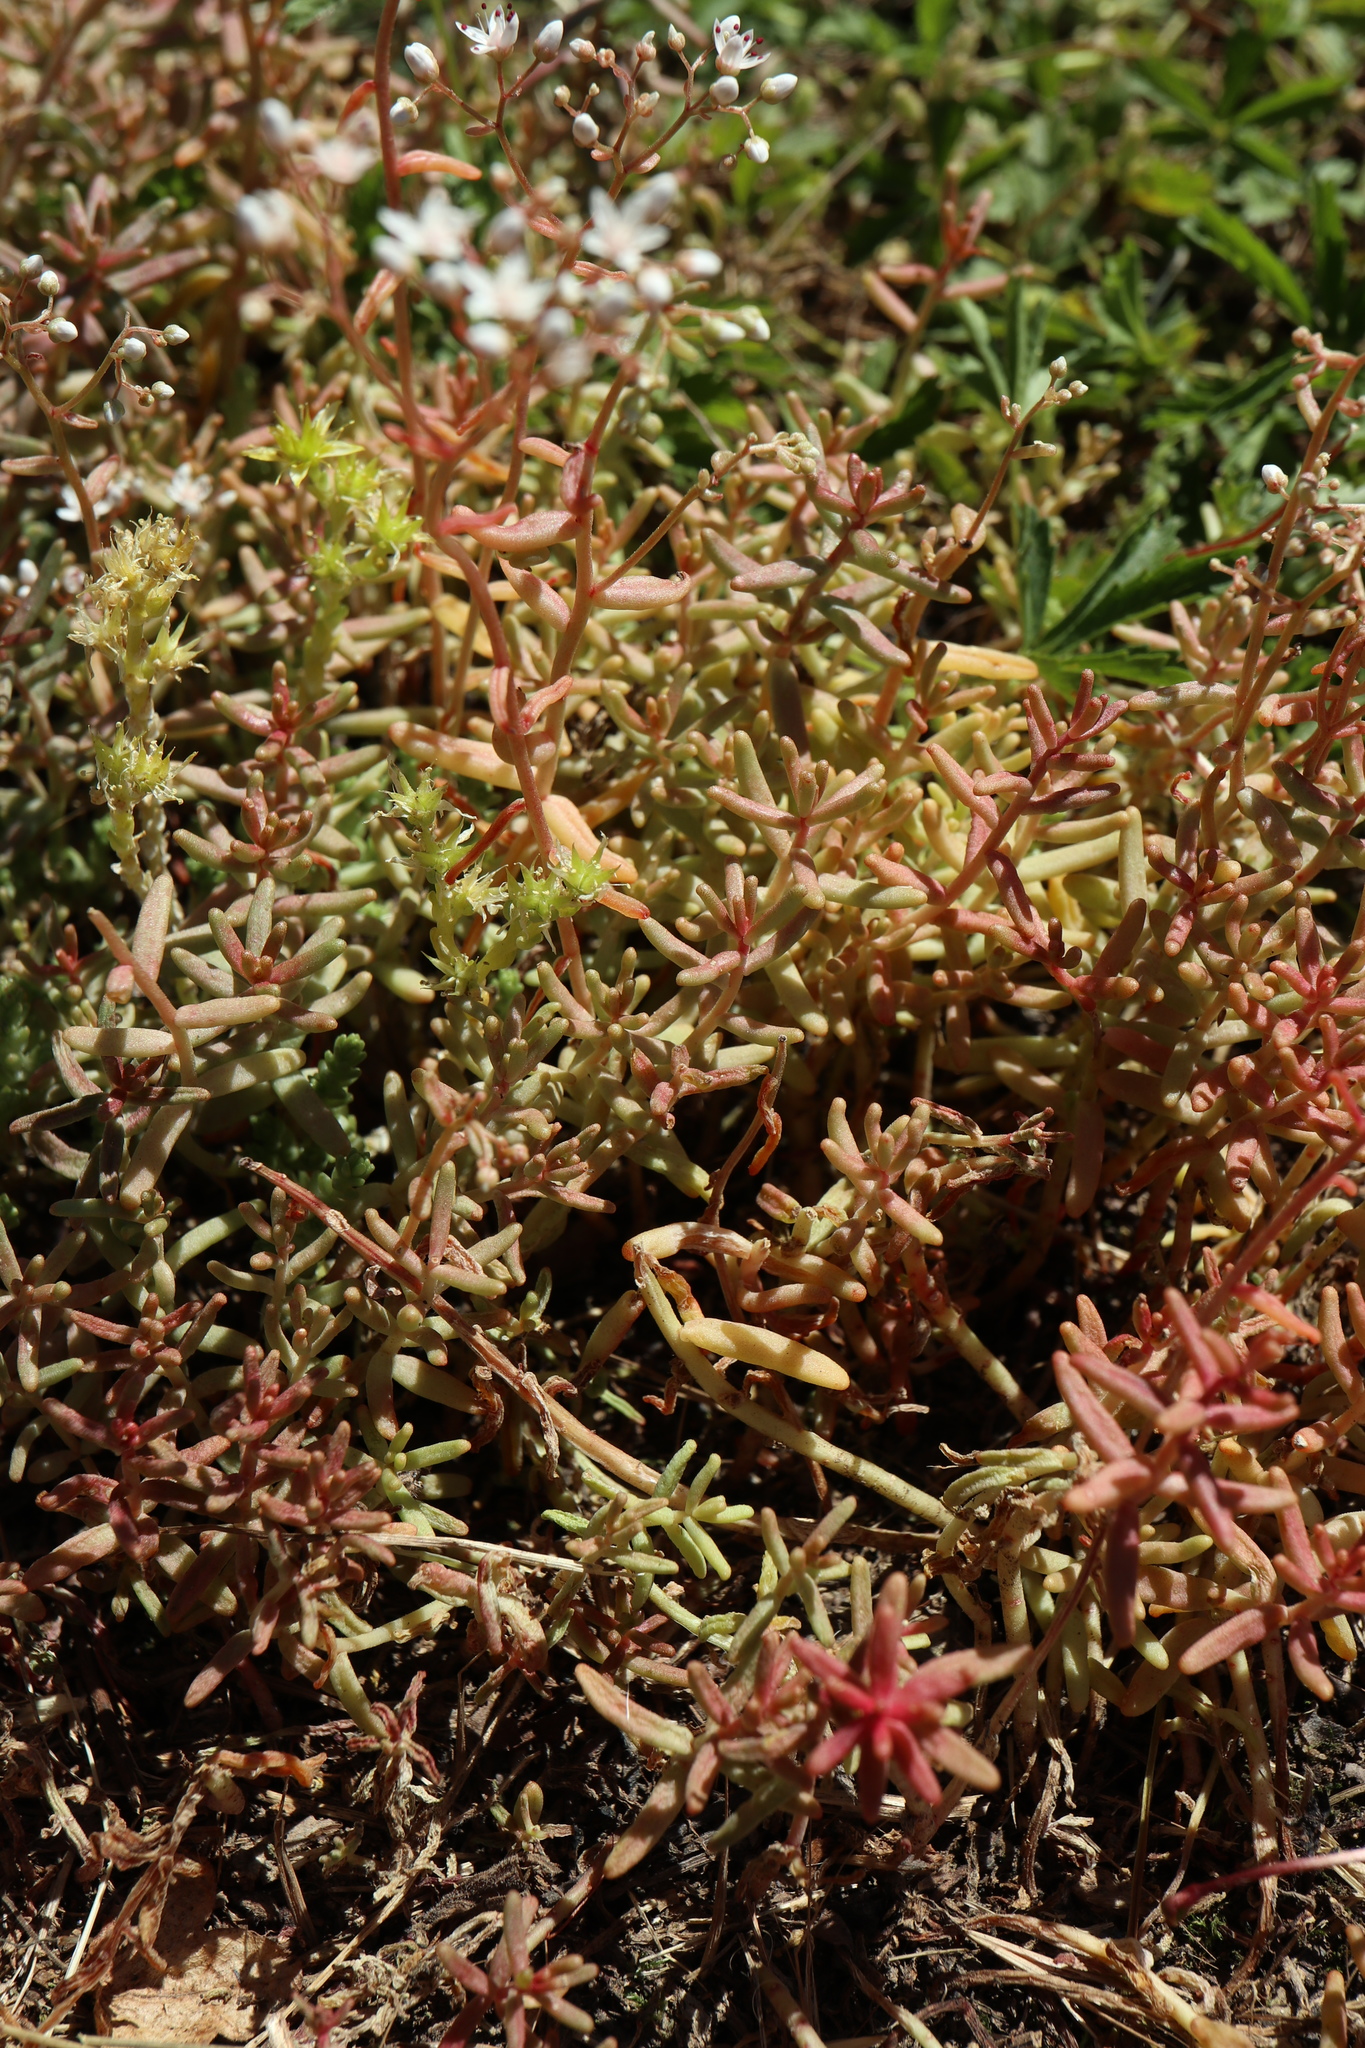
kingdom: Plantae
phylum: Tracheophyta
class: Magnoliopsida
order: Saxifragales
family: Crassulaceae
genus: Sedum
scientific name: Sedum album
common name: White stonecrop
